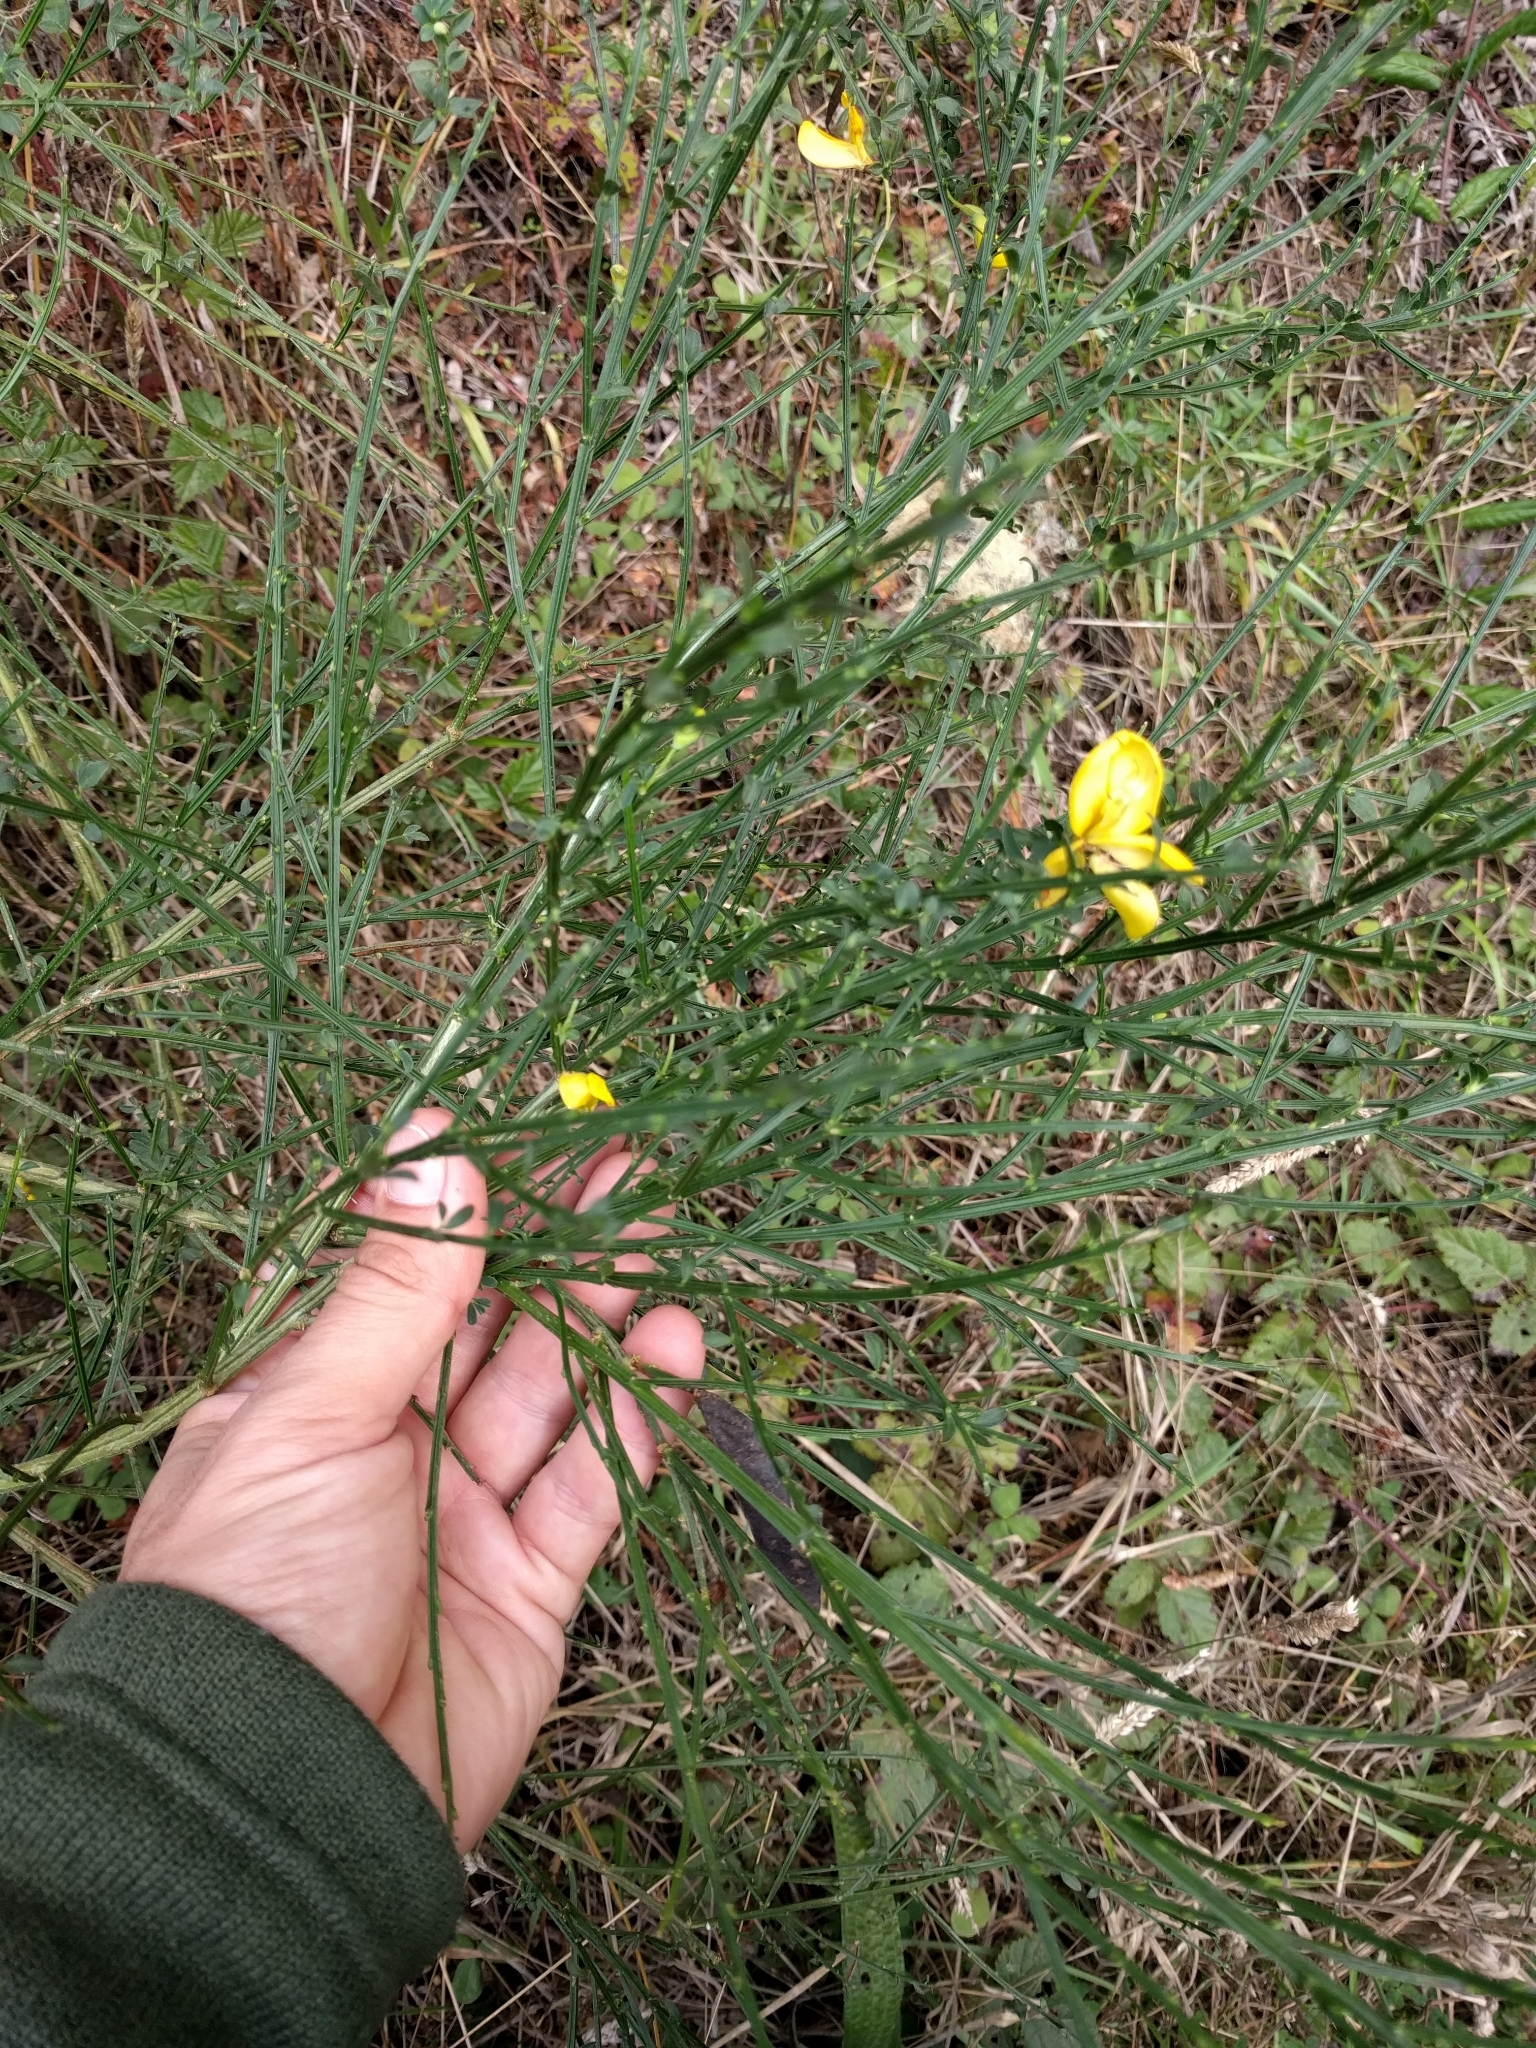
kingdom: Plantae
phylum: Tracheophyta
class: Magnoliopsida
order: Fabales
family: Fabaceae
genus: Cytisus
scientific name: Cytisus scoparius
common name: Scotch broom
